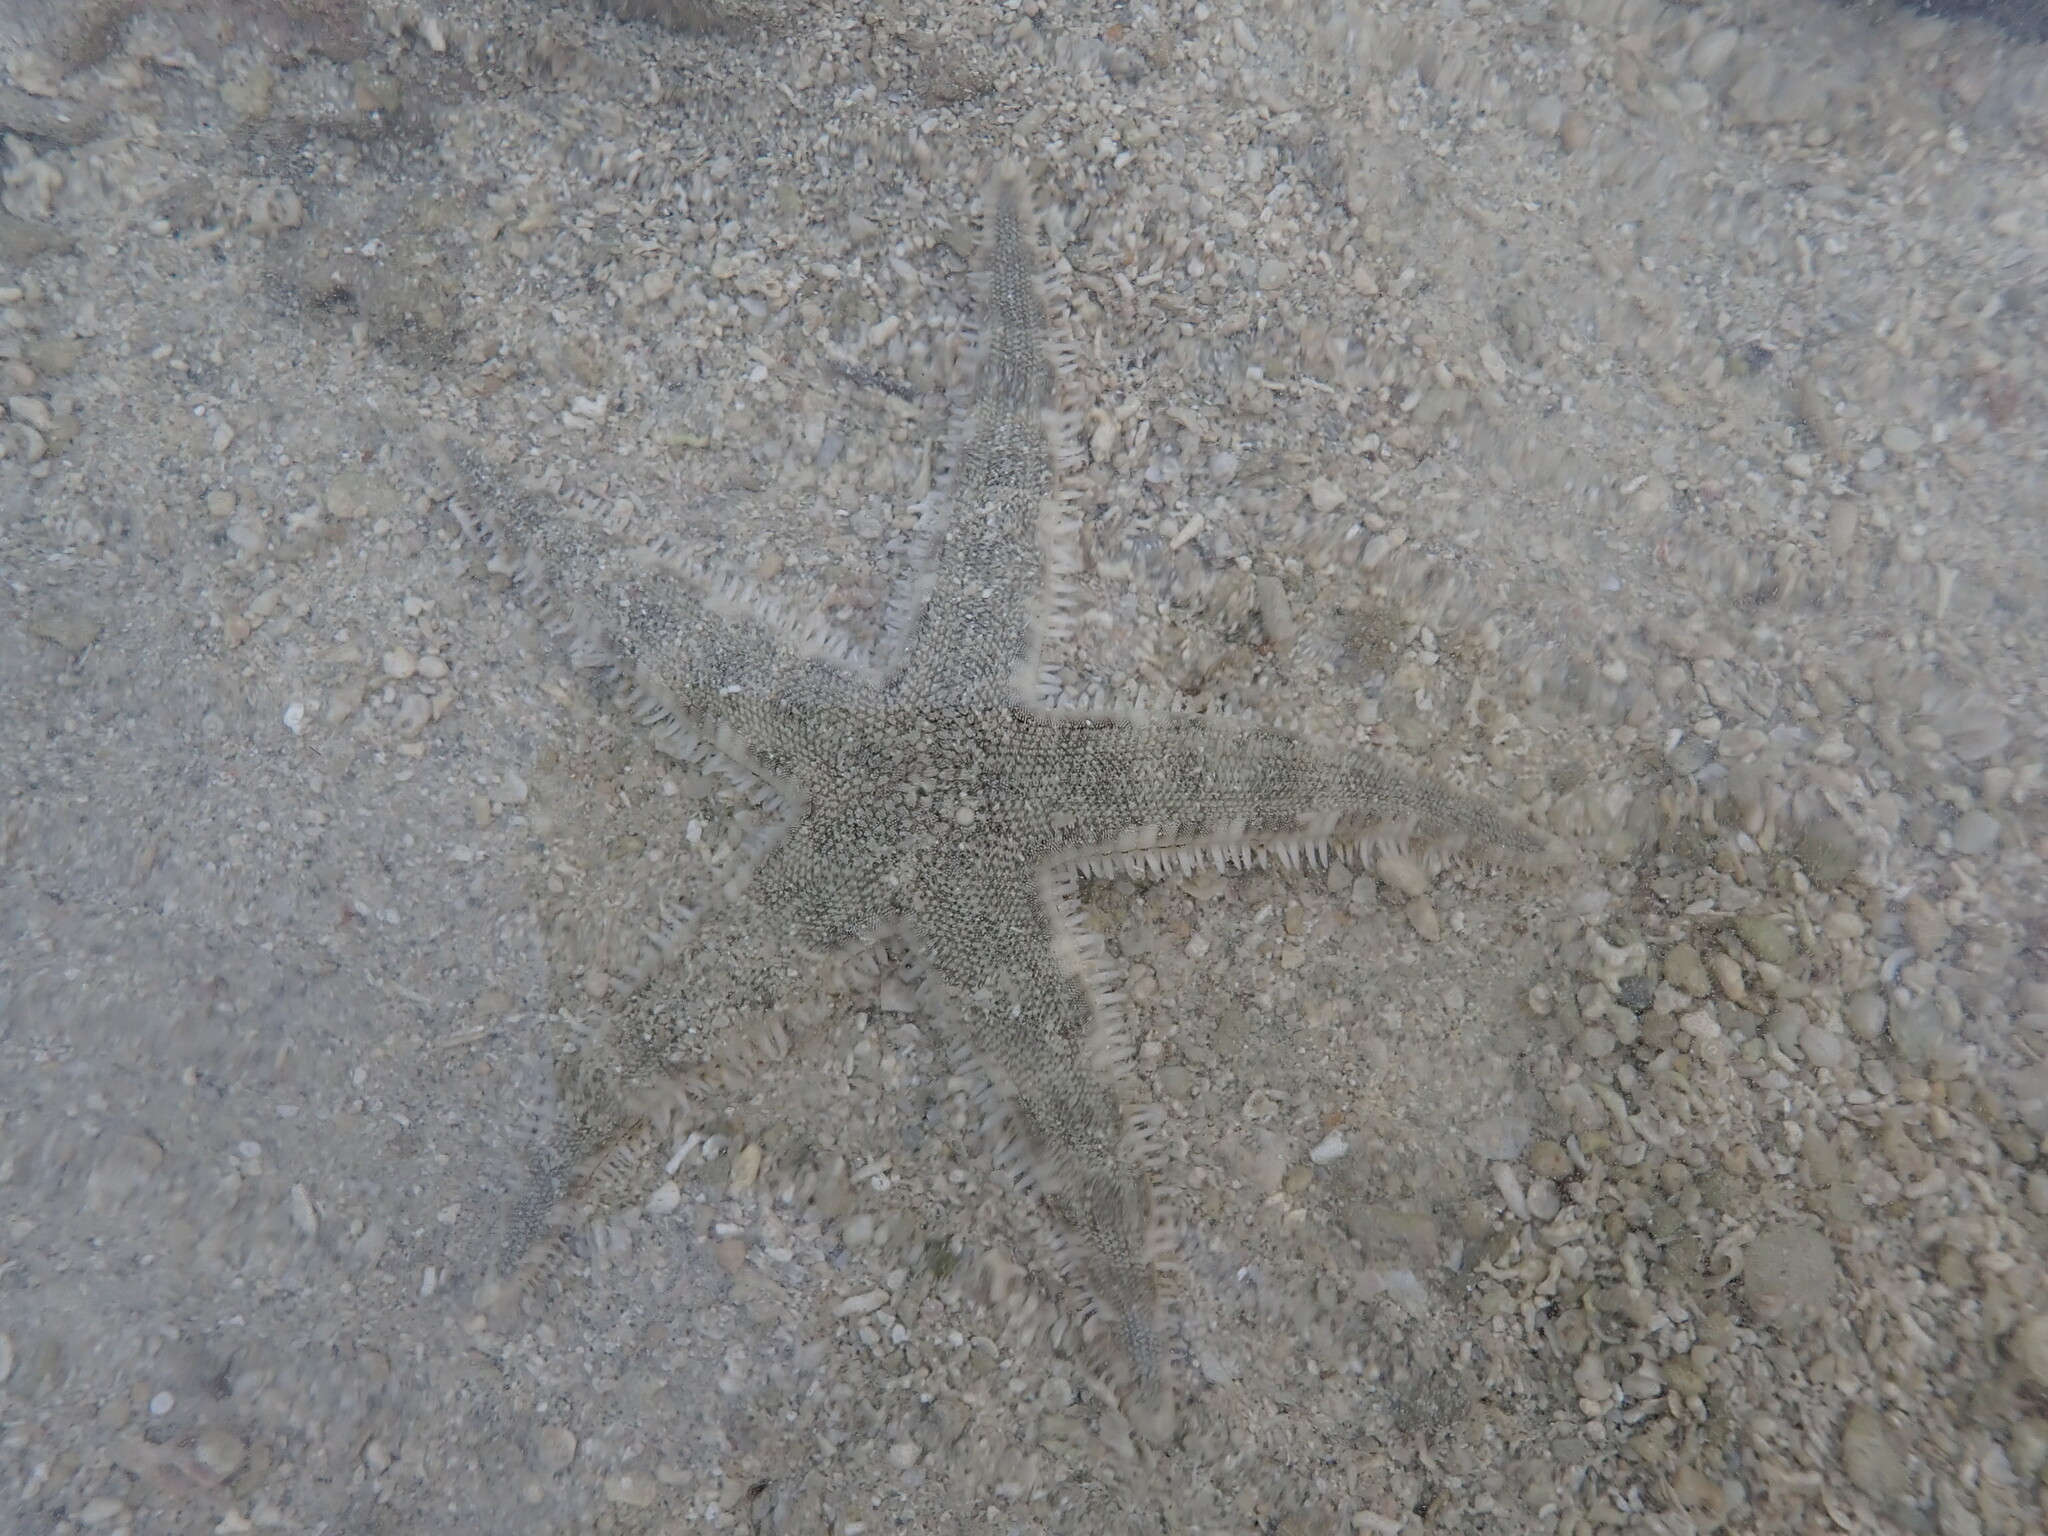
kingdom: Animalia
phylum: Echinodermata
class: Asteroidea
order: Valvatida
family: Archasteridae
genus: Archaster
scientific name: Archaster typicus
